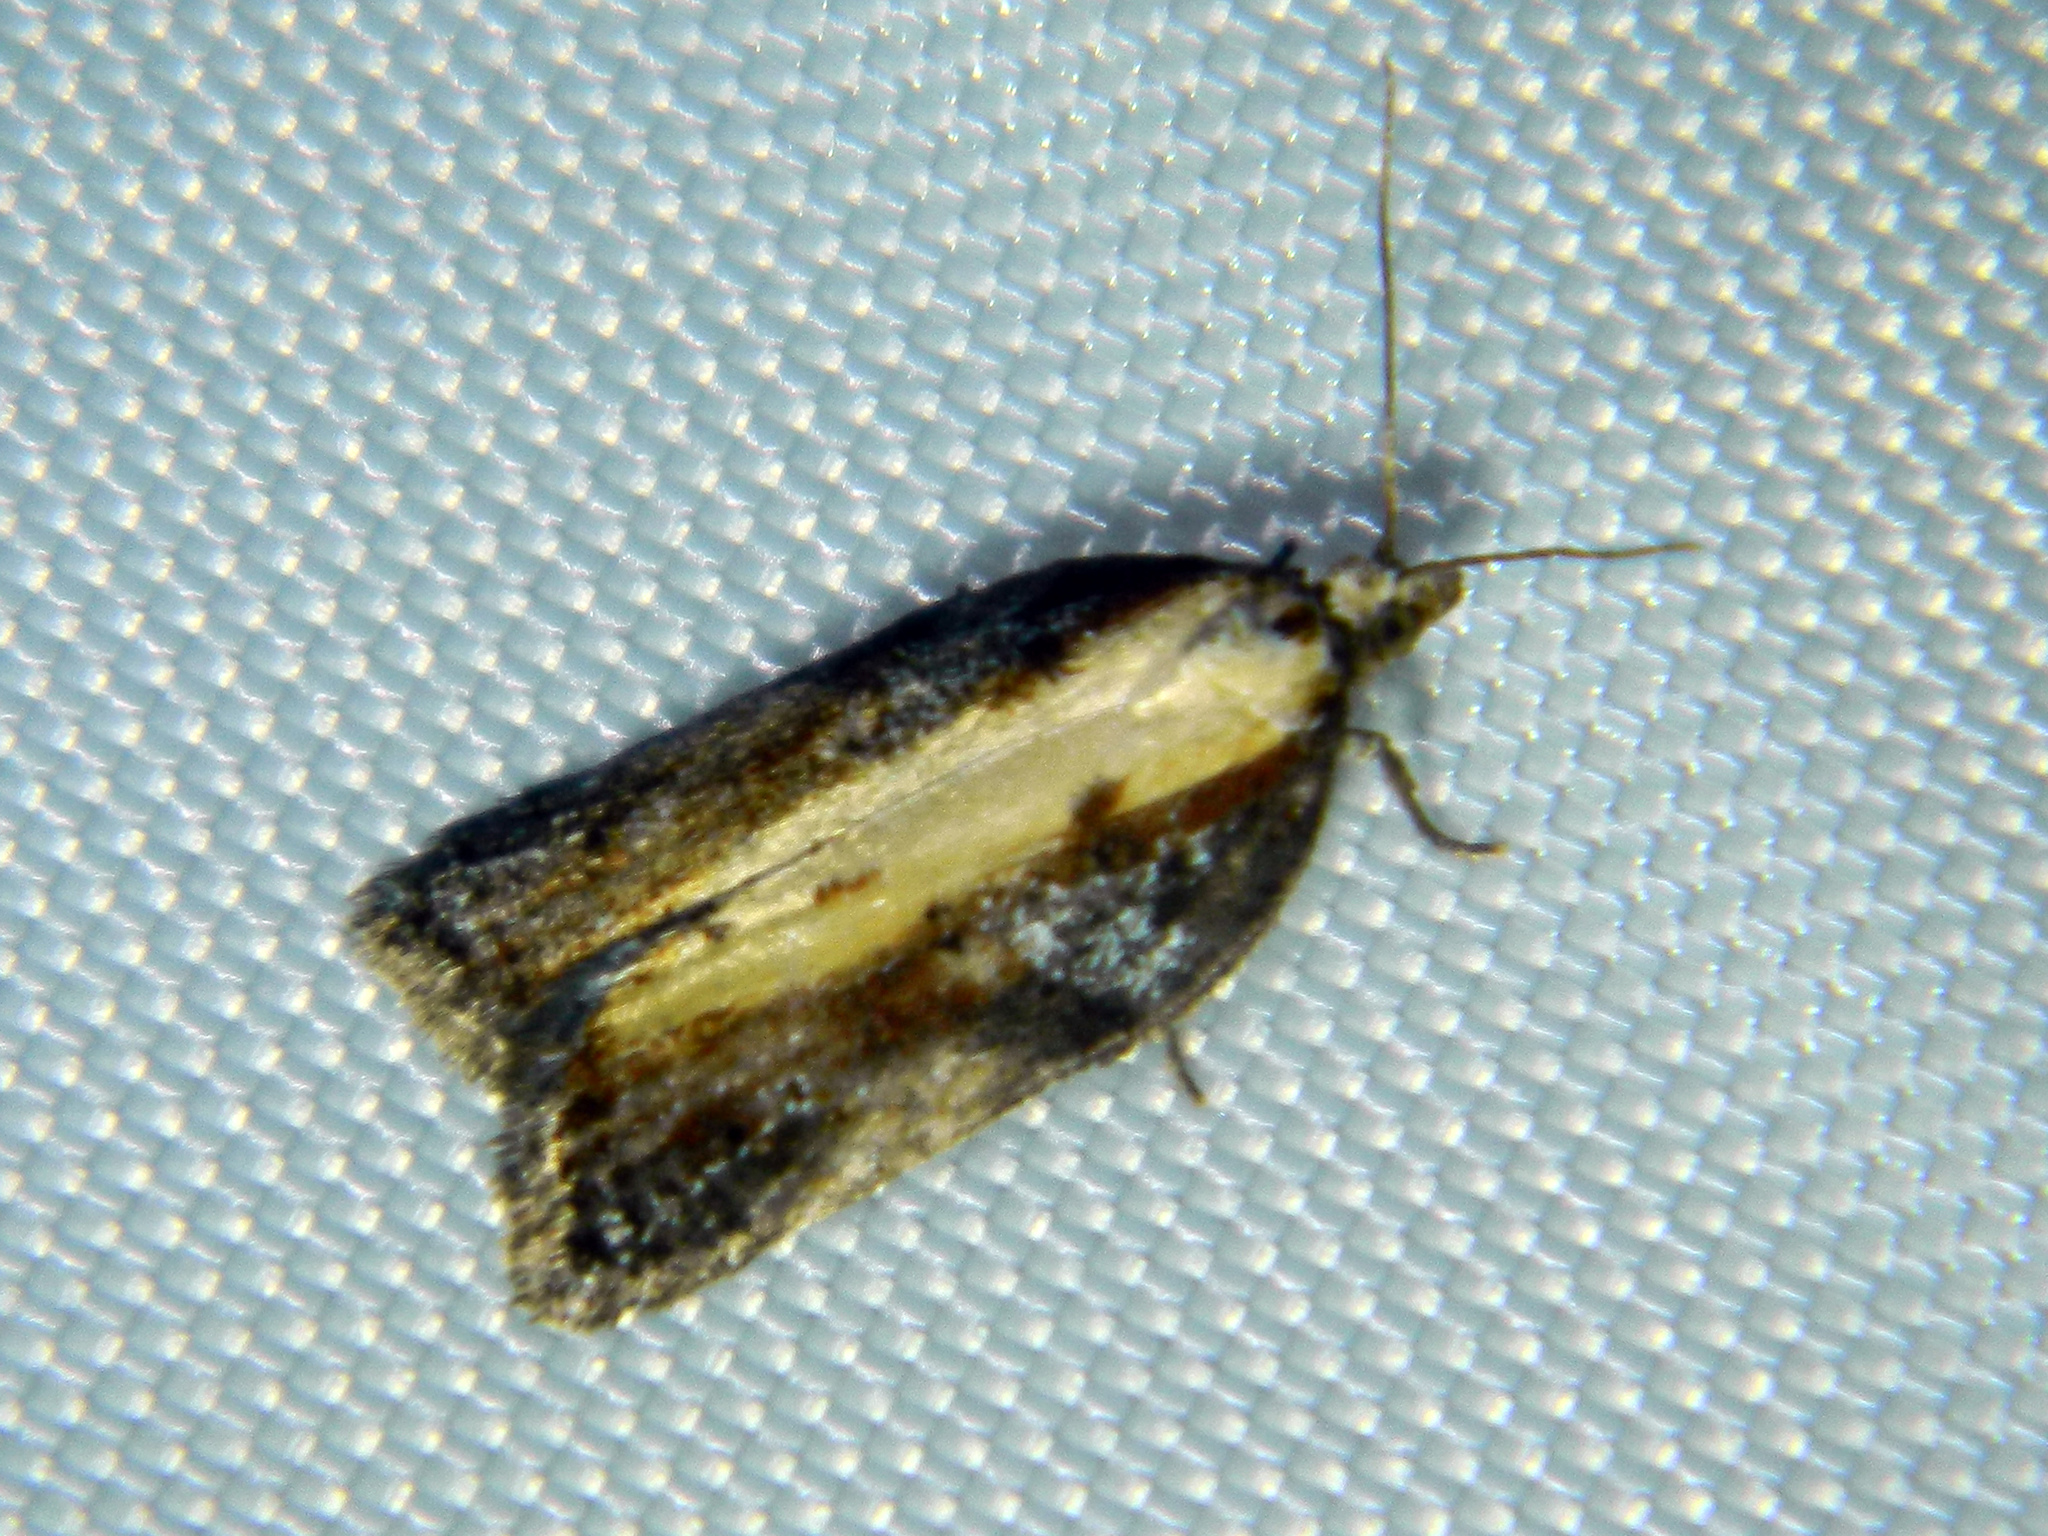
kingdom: Animalia
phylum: Arthropoda
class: Insecta
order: Lepidoptera
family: Tortricidae
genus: Acleris
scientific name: Acleris robinsoniana
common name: Robinson's acleris moth
